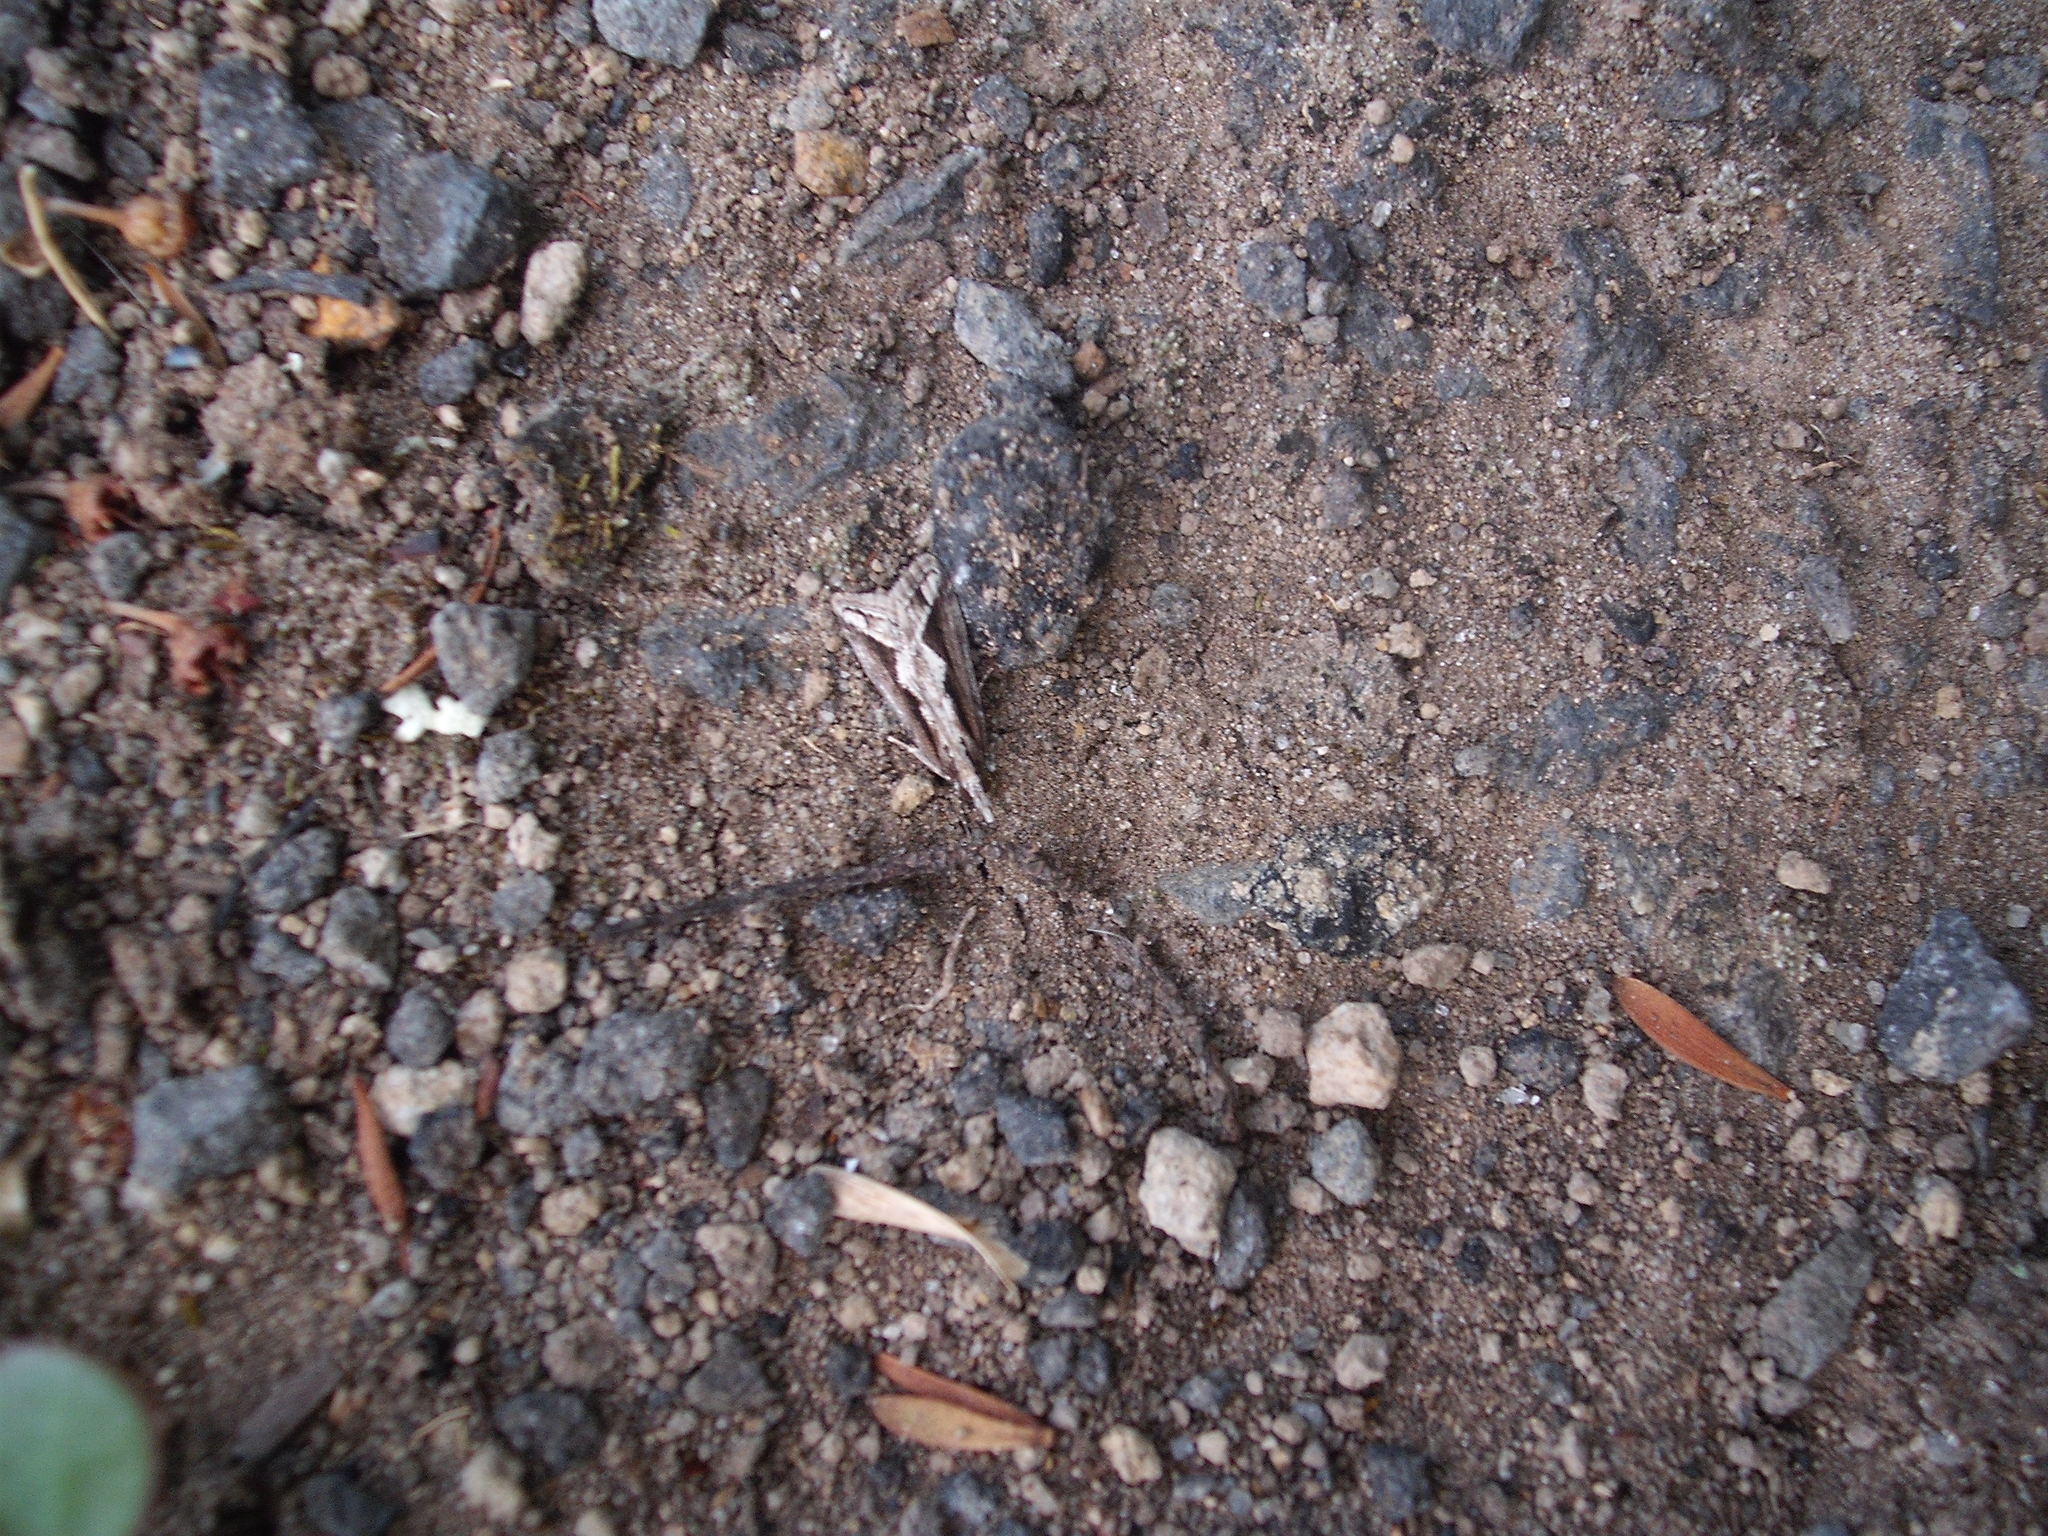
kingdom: Animalia
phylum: Arthropoda
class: Insecta
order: Lepidoptera
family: Crambidae
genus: Eudonia
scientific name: Eudonia steropaea
